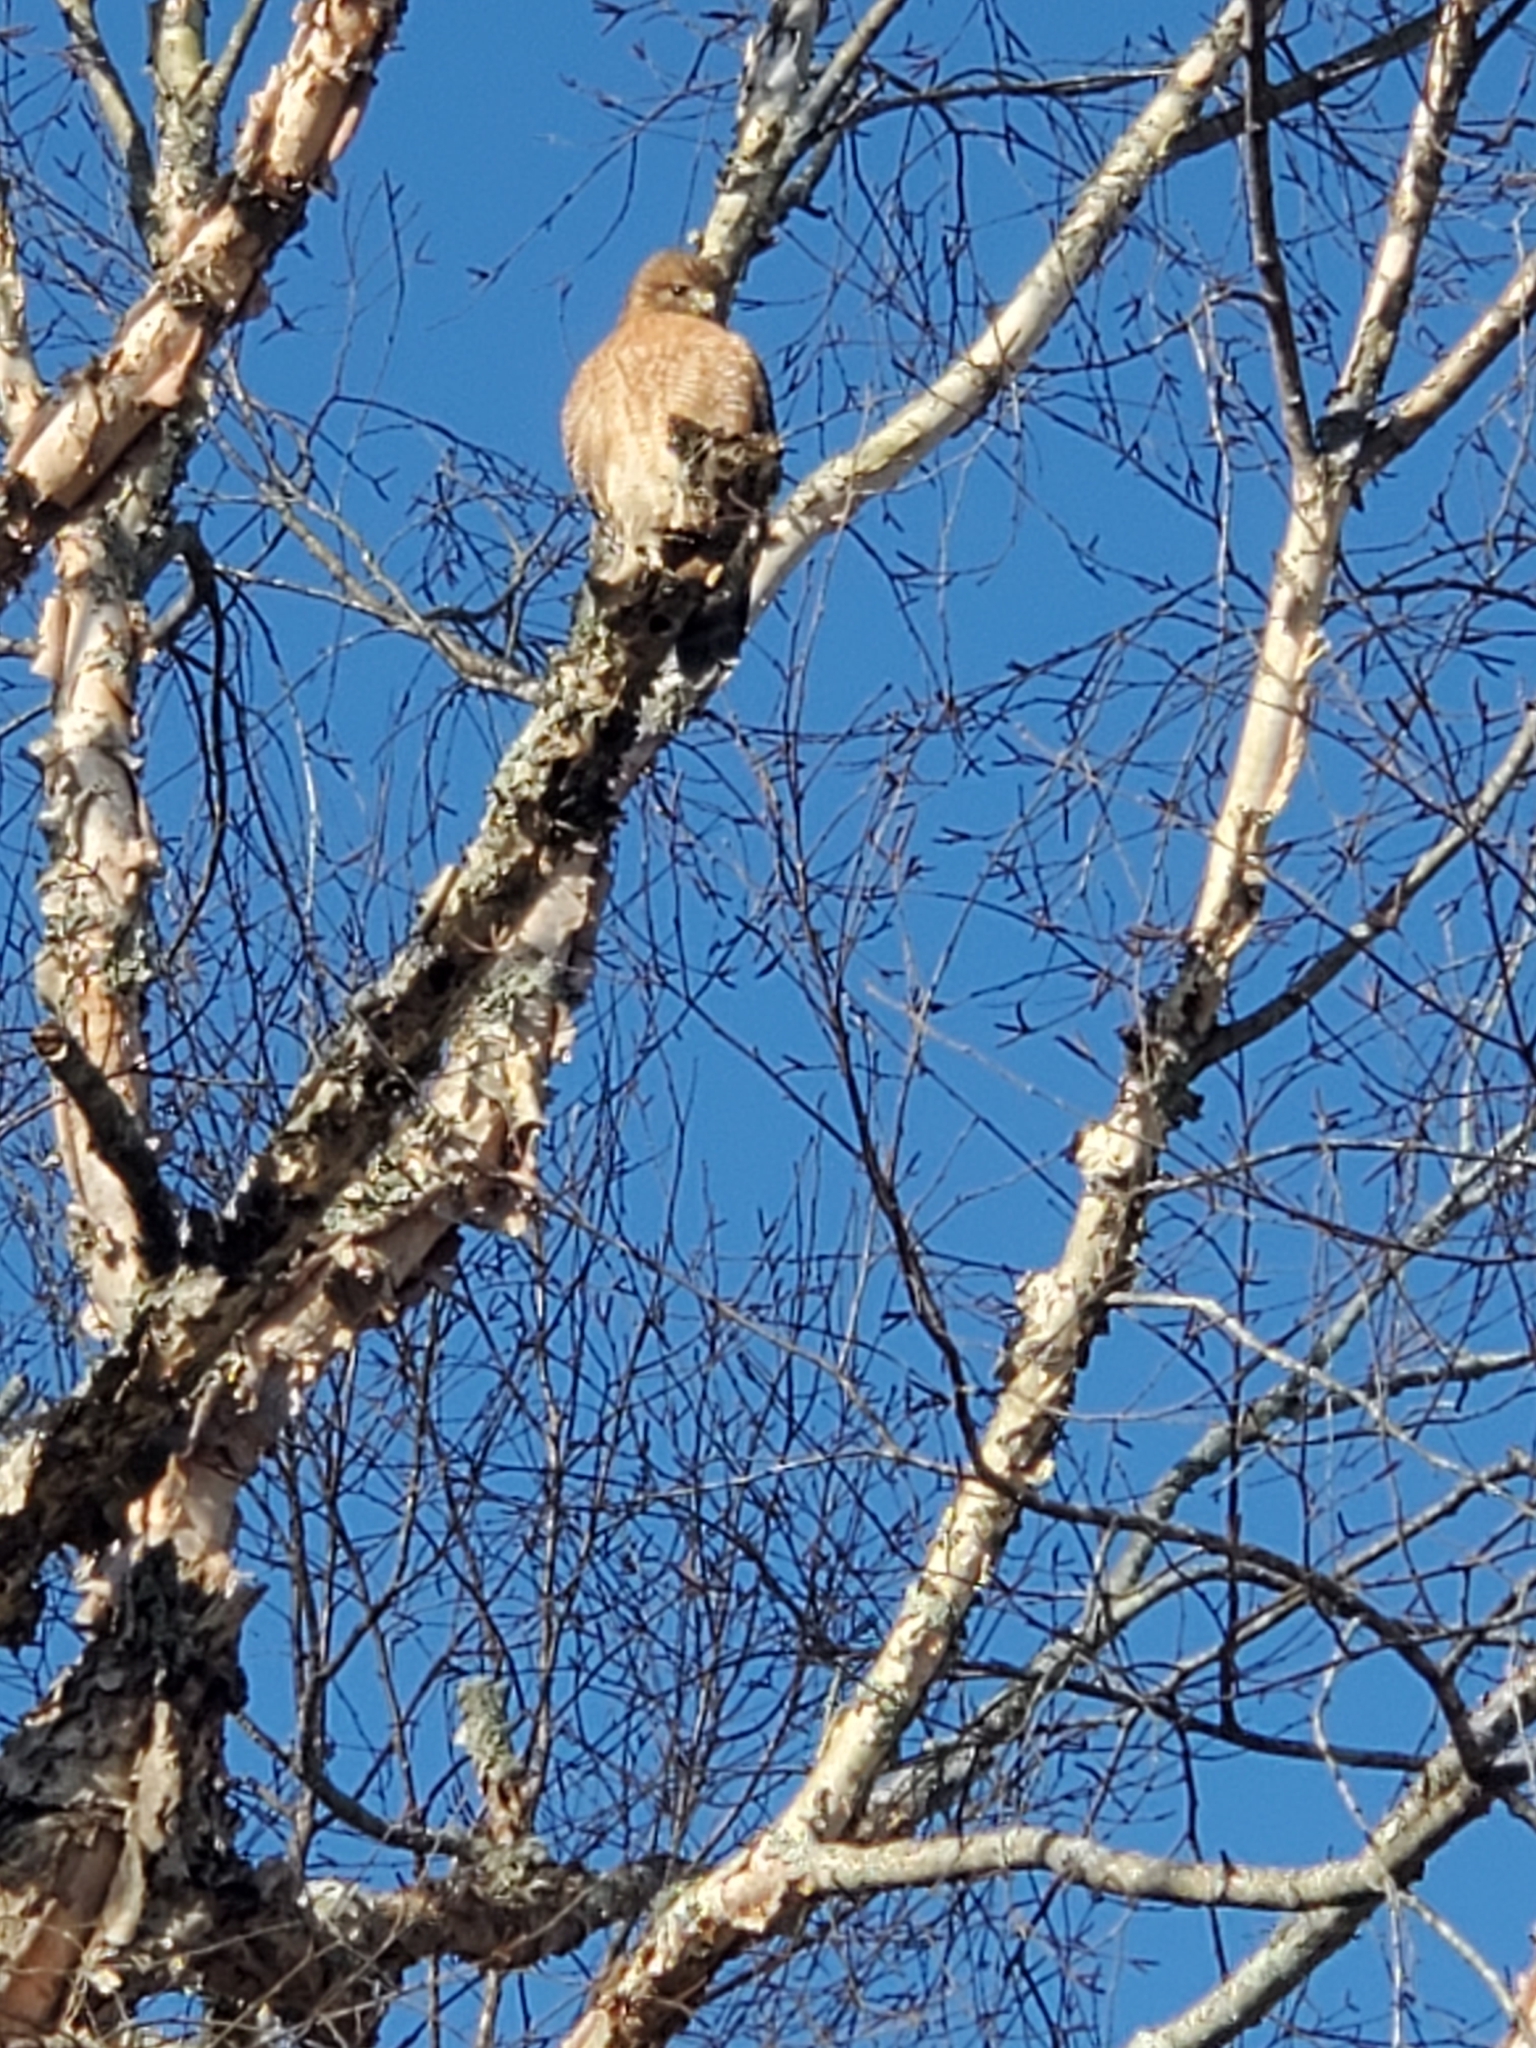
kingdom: Animalia
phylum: Chordata
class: Aves
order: Accipitriformes
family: Accipitridae
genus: Buteo
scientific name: Buteo lineatus
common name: Red-shouldered hawk
